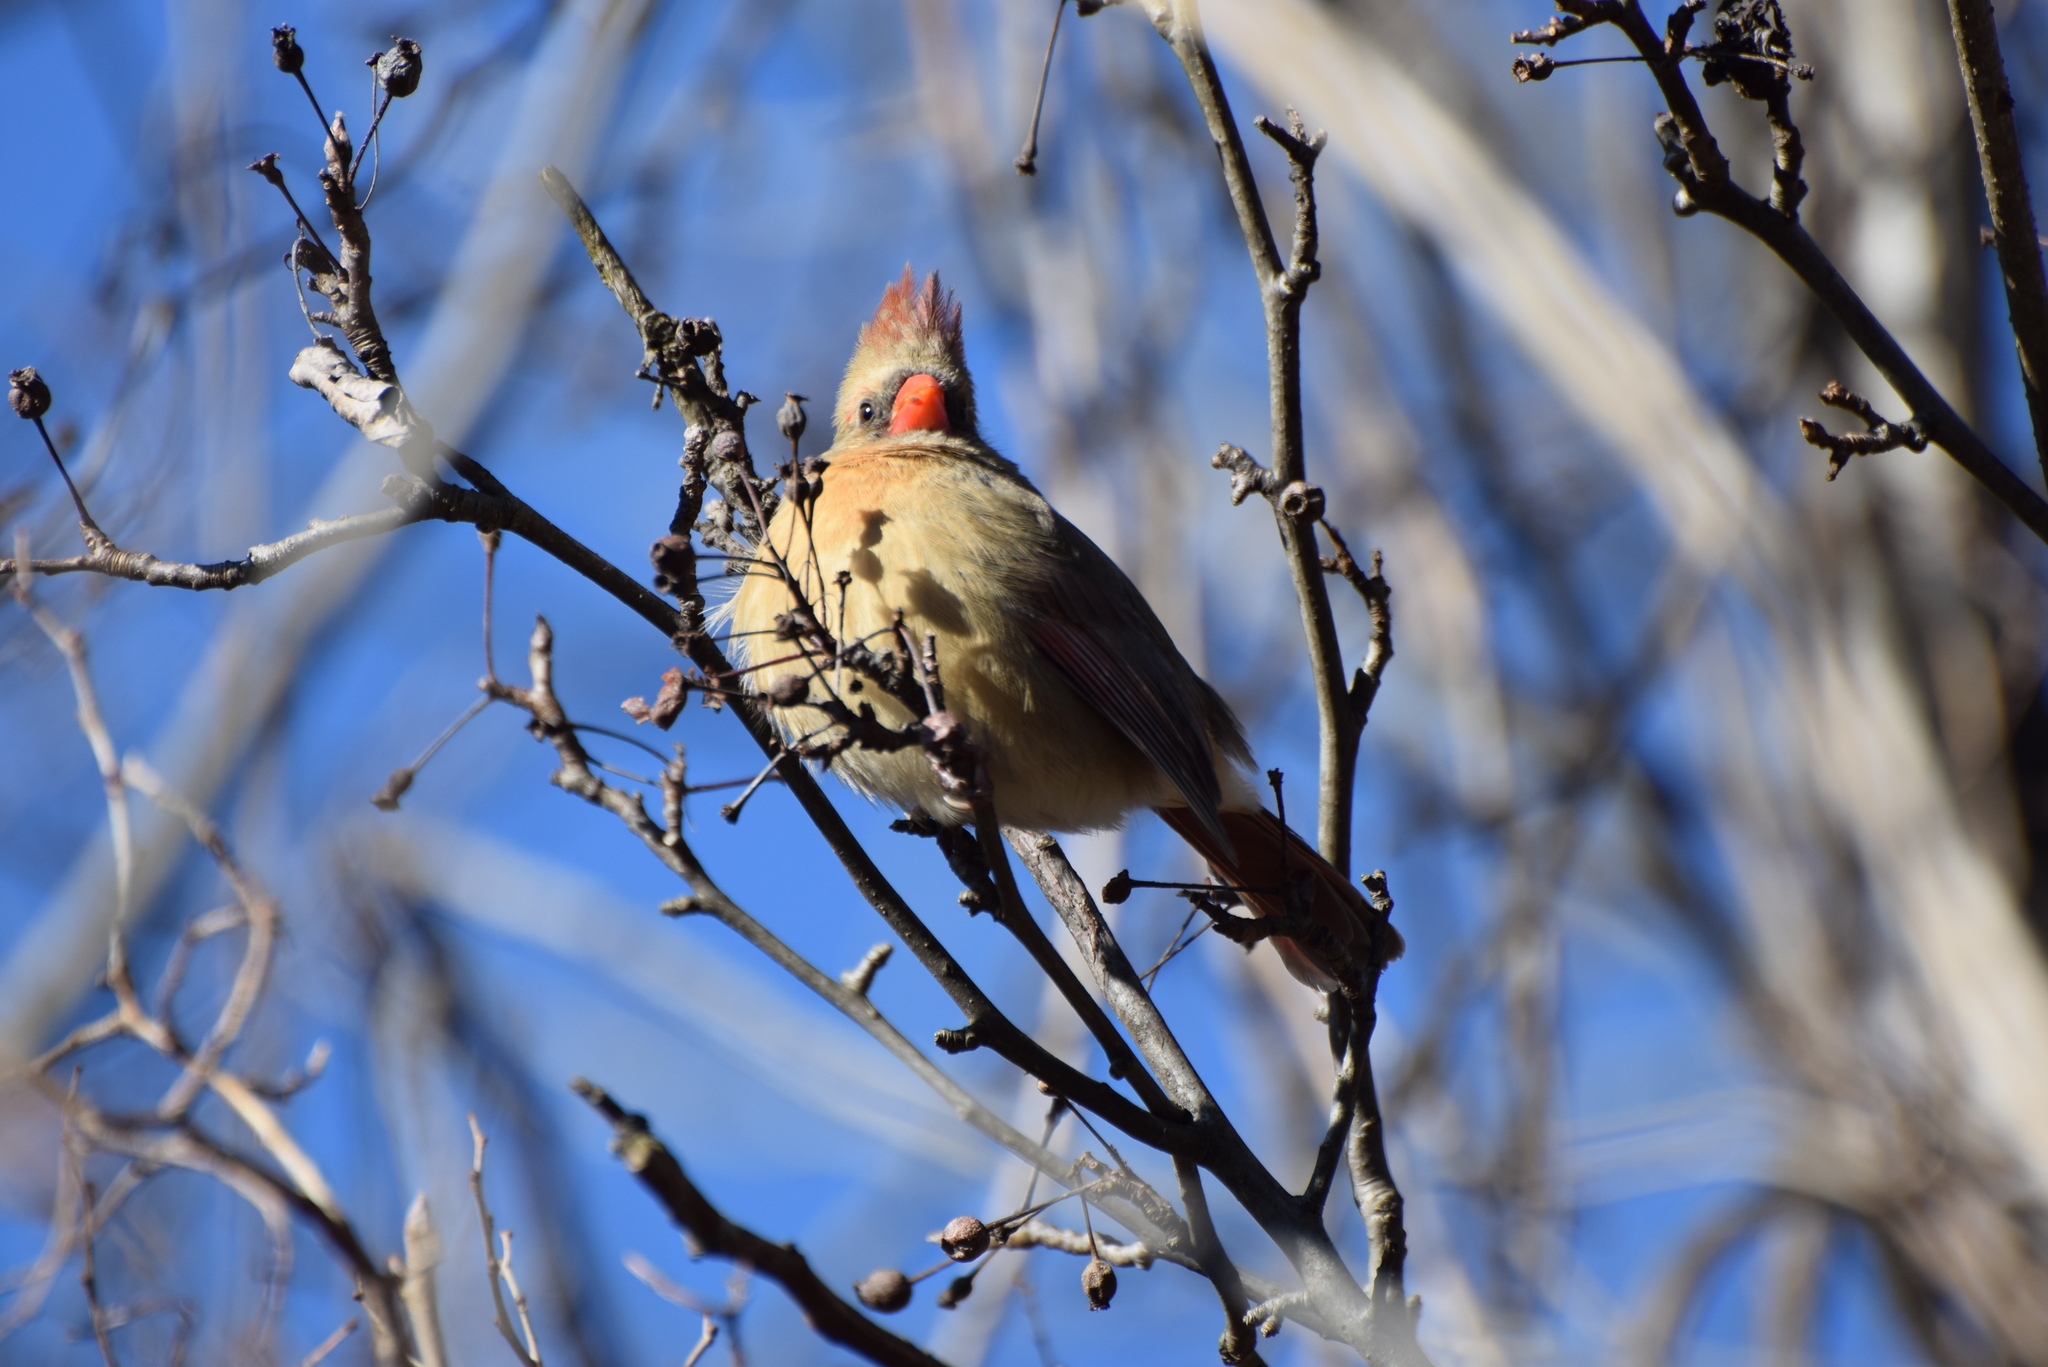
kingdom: Animalia
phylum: Chordata
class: Aves
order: Passeriformes
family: Cardinalidae
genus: Cardinalis
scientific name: Cardinalis cardinalis
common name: Northern cardinal
